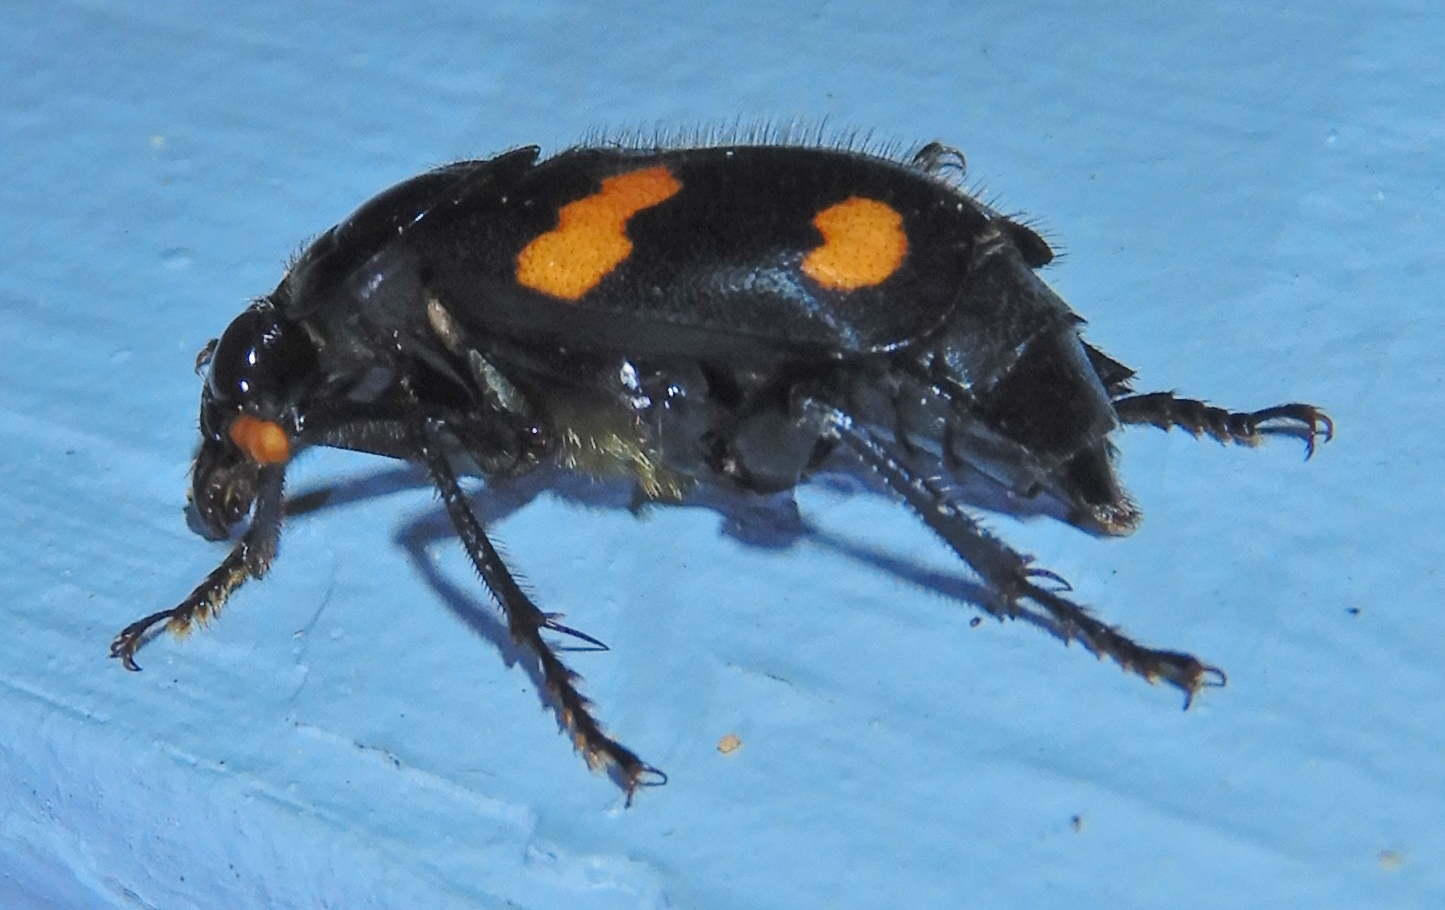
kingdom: Animalia
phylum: Arthropoda
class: Insecta
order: Coleoptera
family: Staphylinidae
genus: Nicrophorus
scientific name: Nicrophorus orbicollis
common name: Roundneck sexton beetle
